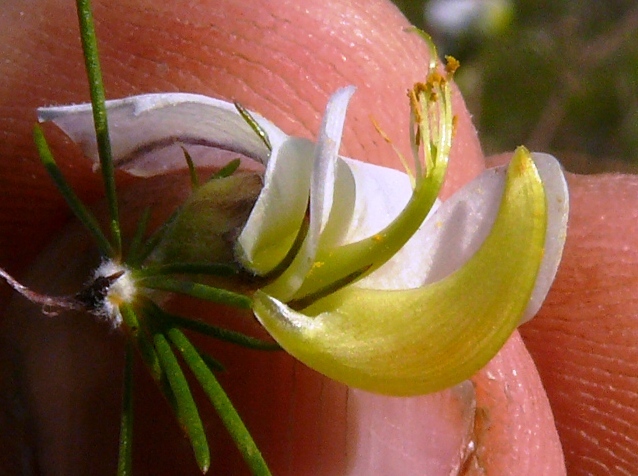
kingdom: Plantae
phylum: Tracheophyta
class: Magnoliopsida
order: Fabales
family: Fabaceae
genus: Aspalathus
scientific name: Aspalathus willdenowiana
